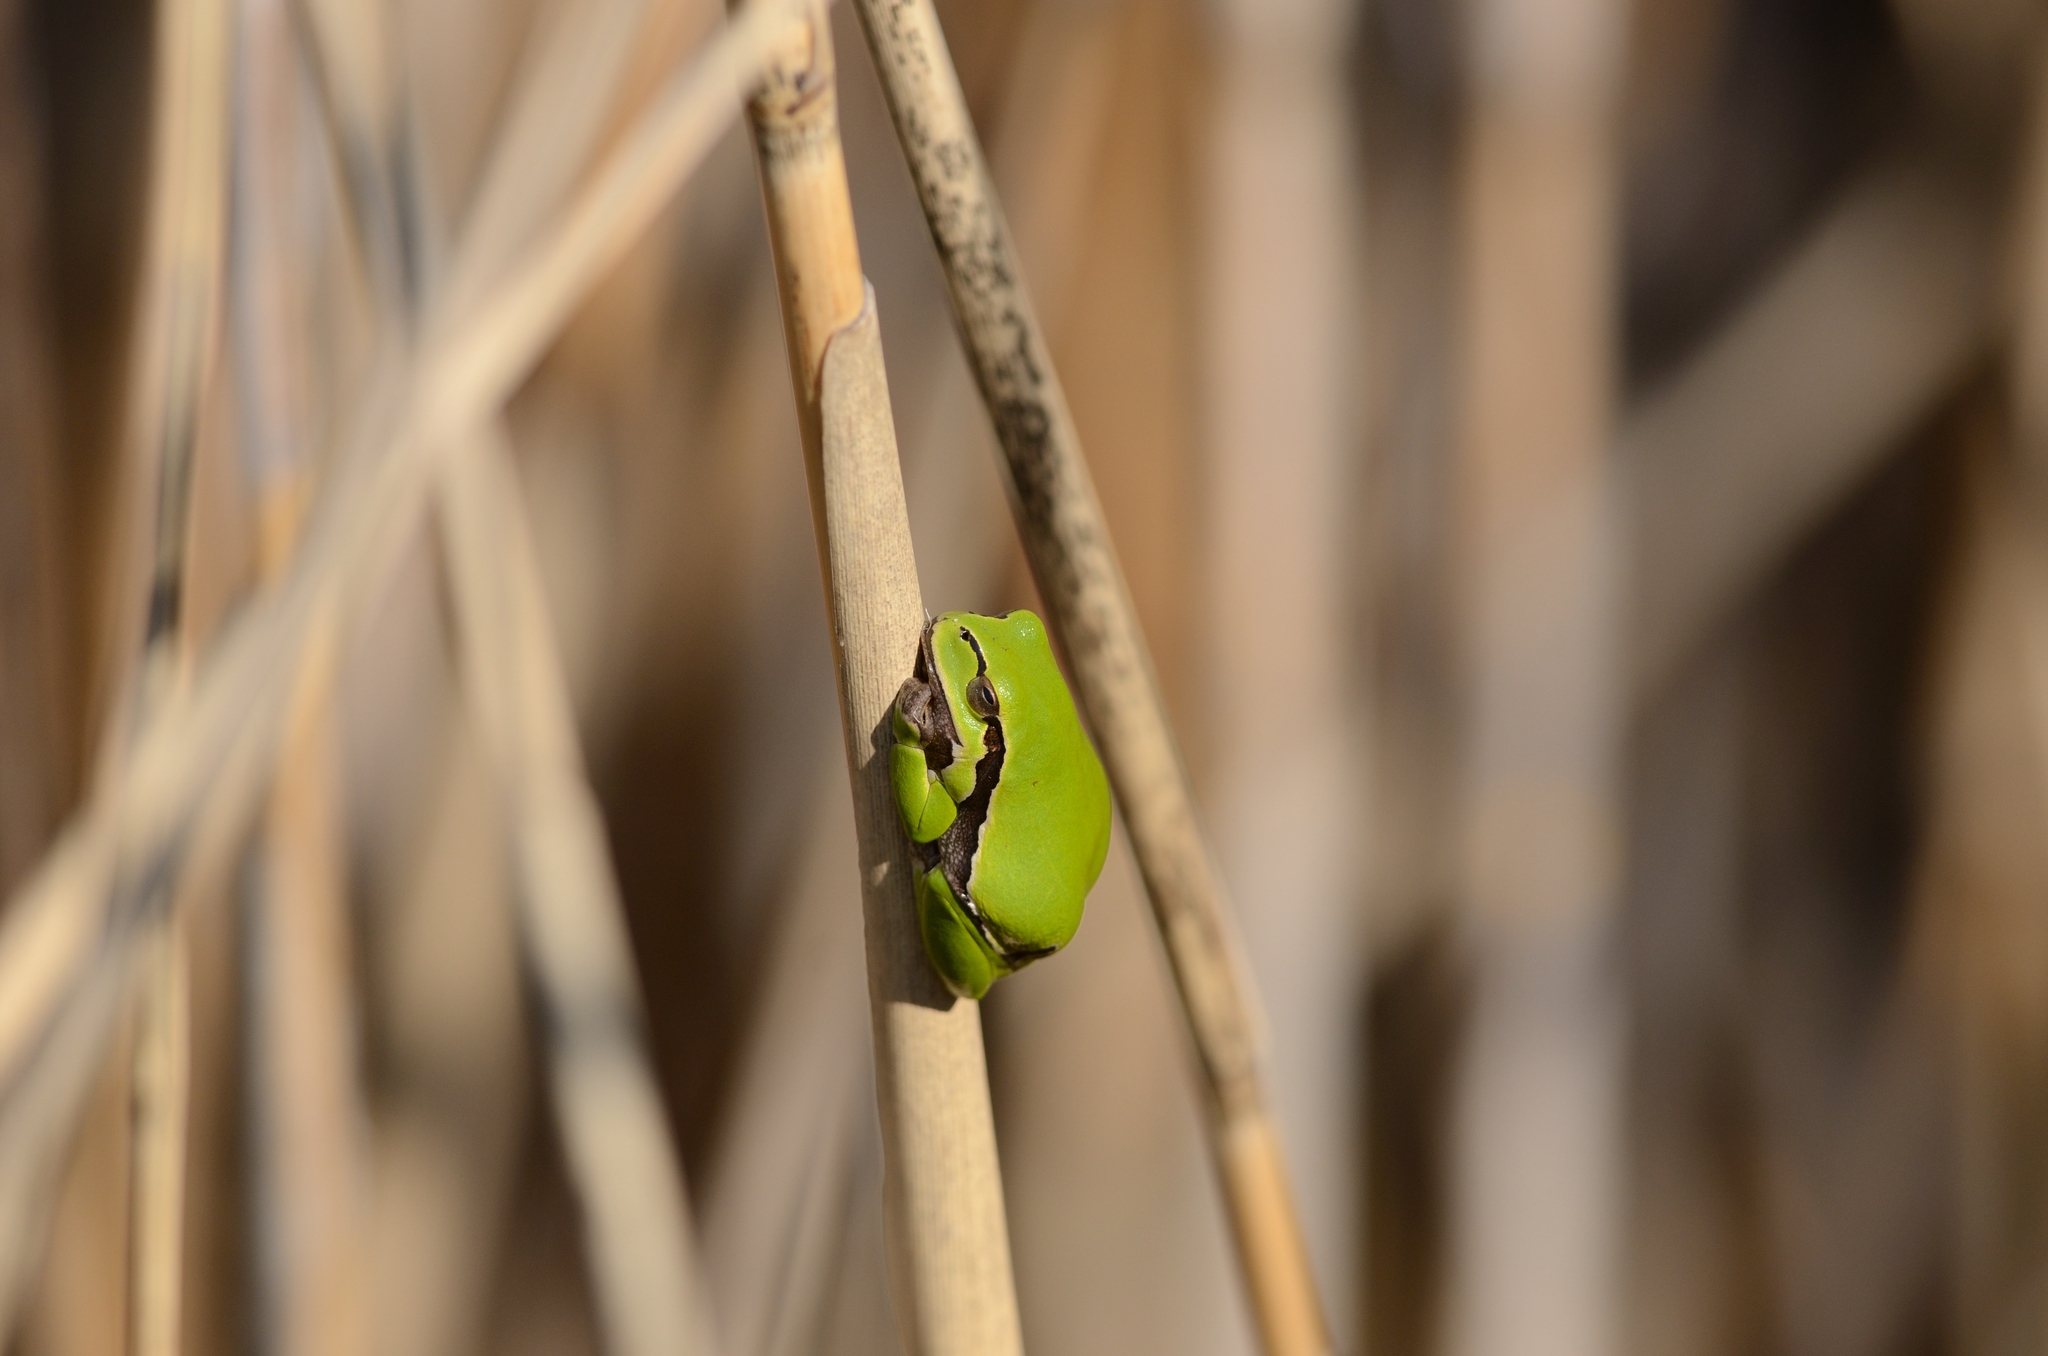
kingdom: Animalia
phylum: Chordata
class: Amphibia
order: Anura
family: Hylidae
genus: Hyla
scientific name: Hyla arborea
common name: Common tree frog
